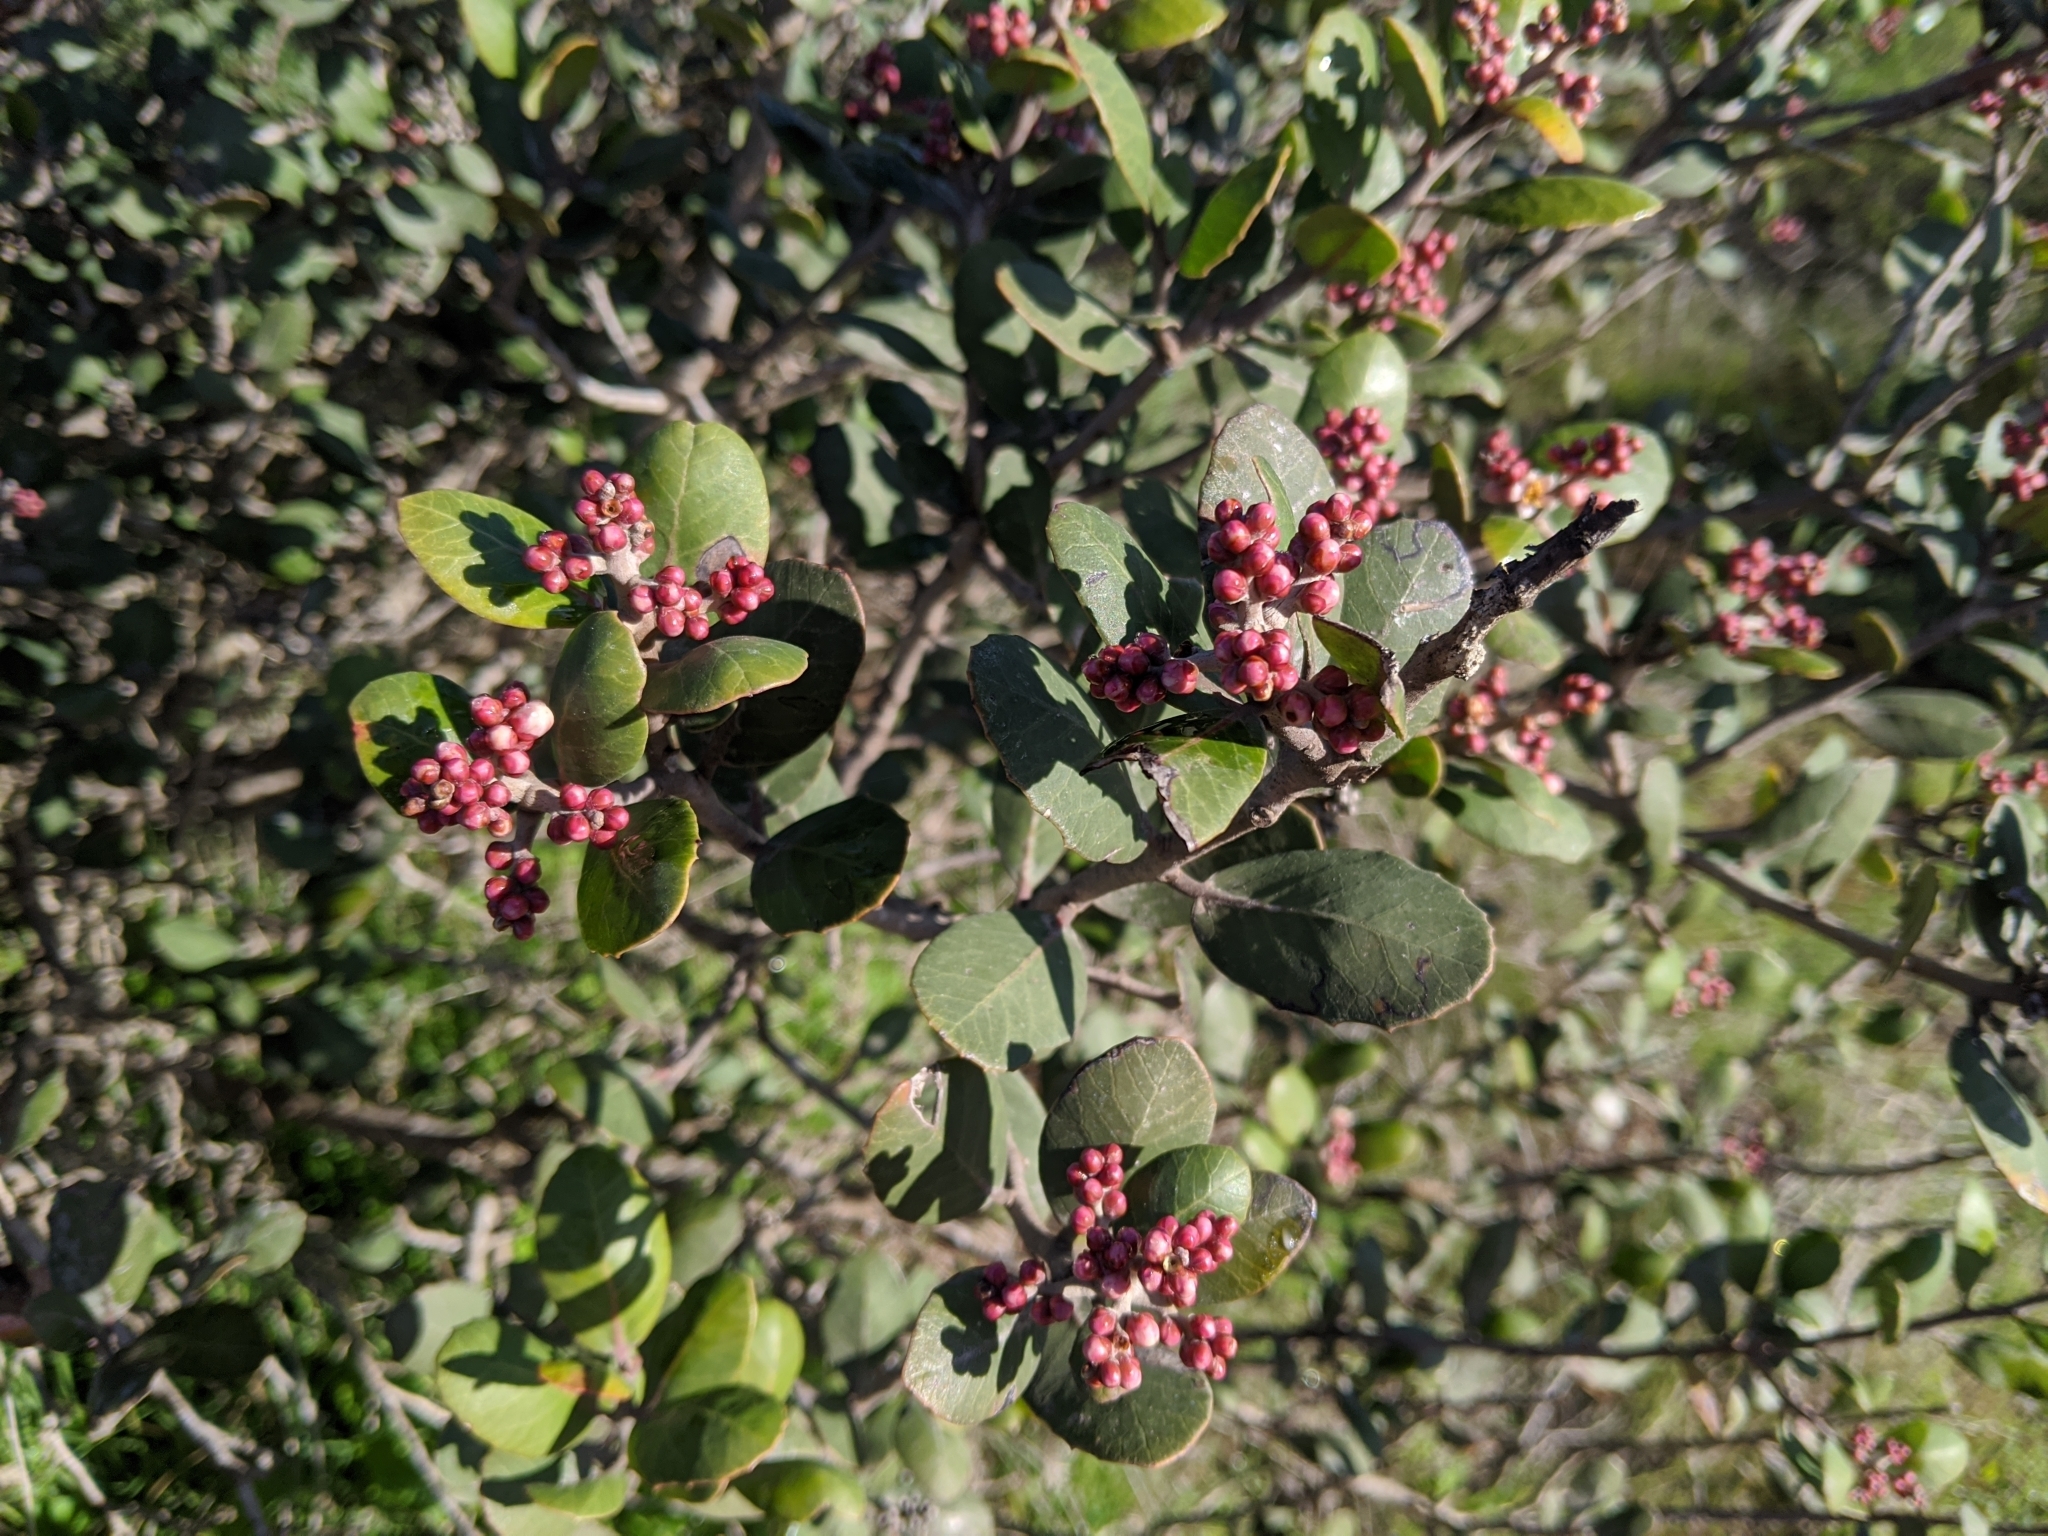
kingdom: Plantae
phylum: Tracheophyta
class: Magnoliopsida
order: Sapindales
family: Anacardiaceae
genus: Rhus
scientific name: Rhus integrifolia
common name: Lemonade sumac
